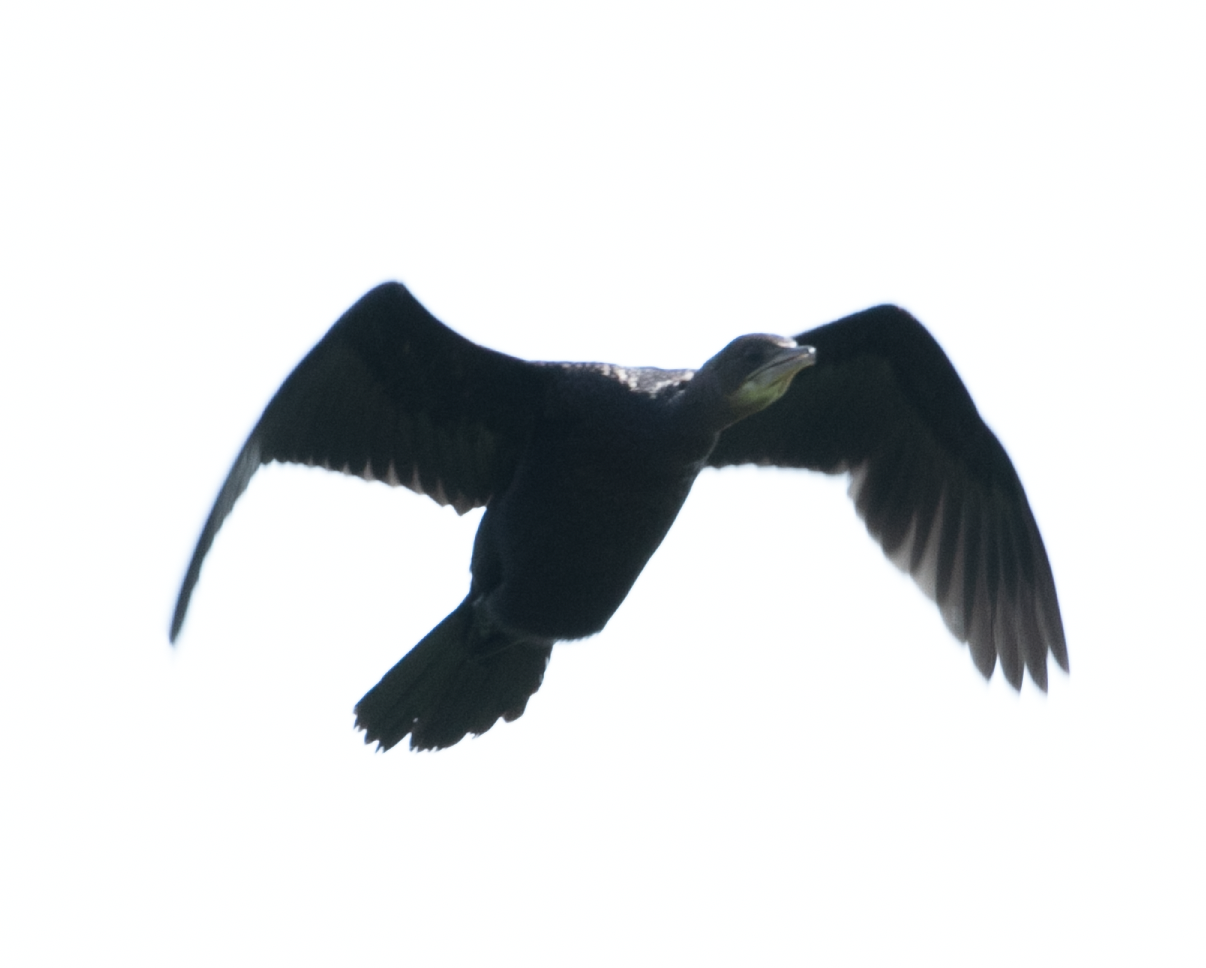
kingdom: Animalia
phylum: Chordata
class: Aves
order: Suliformes
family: Phalacrocoracidae
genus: Microcarbo
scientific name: Microcarbo pygmaeus
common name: Pygmy cormorant
